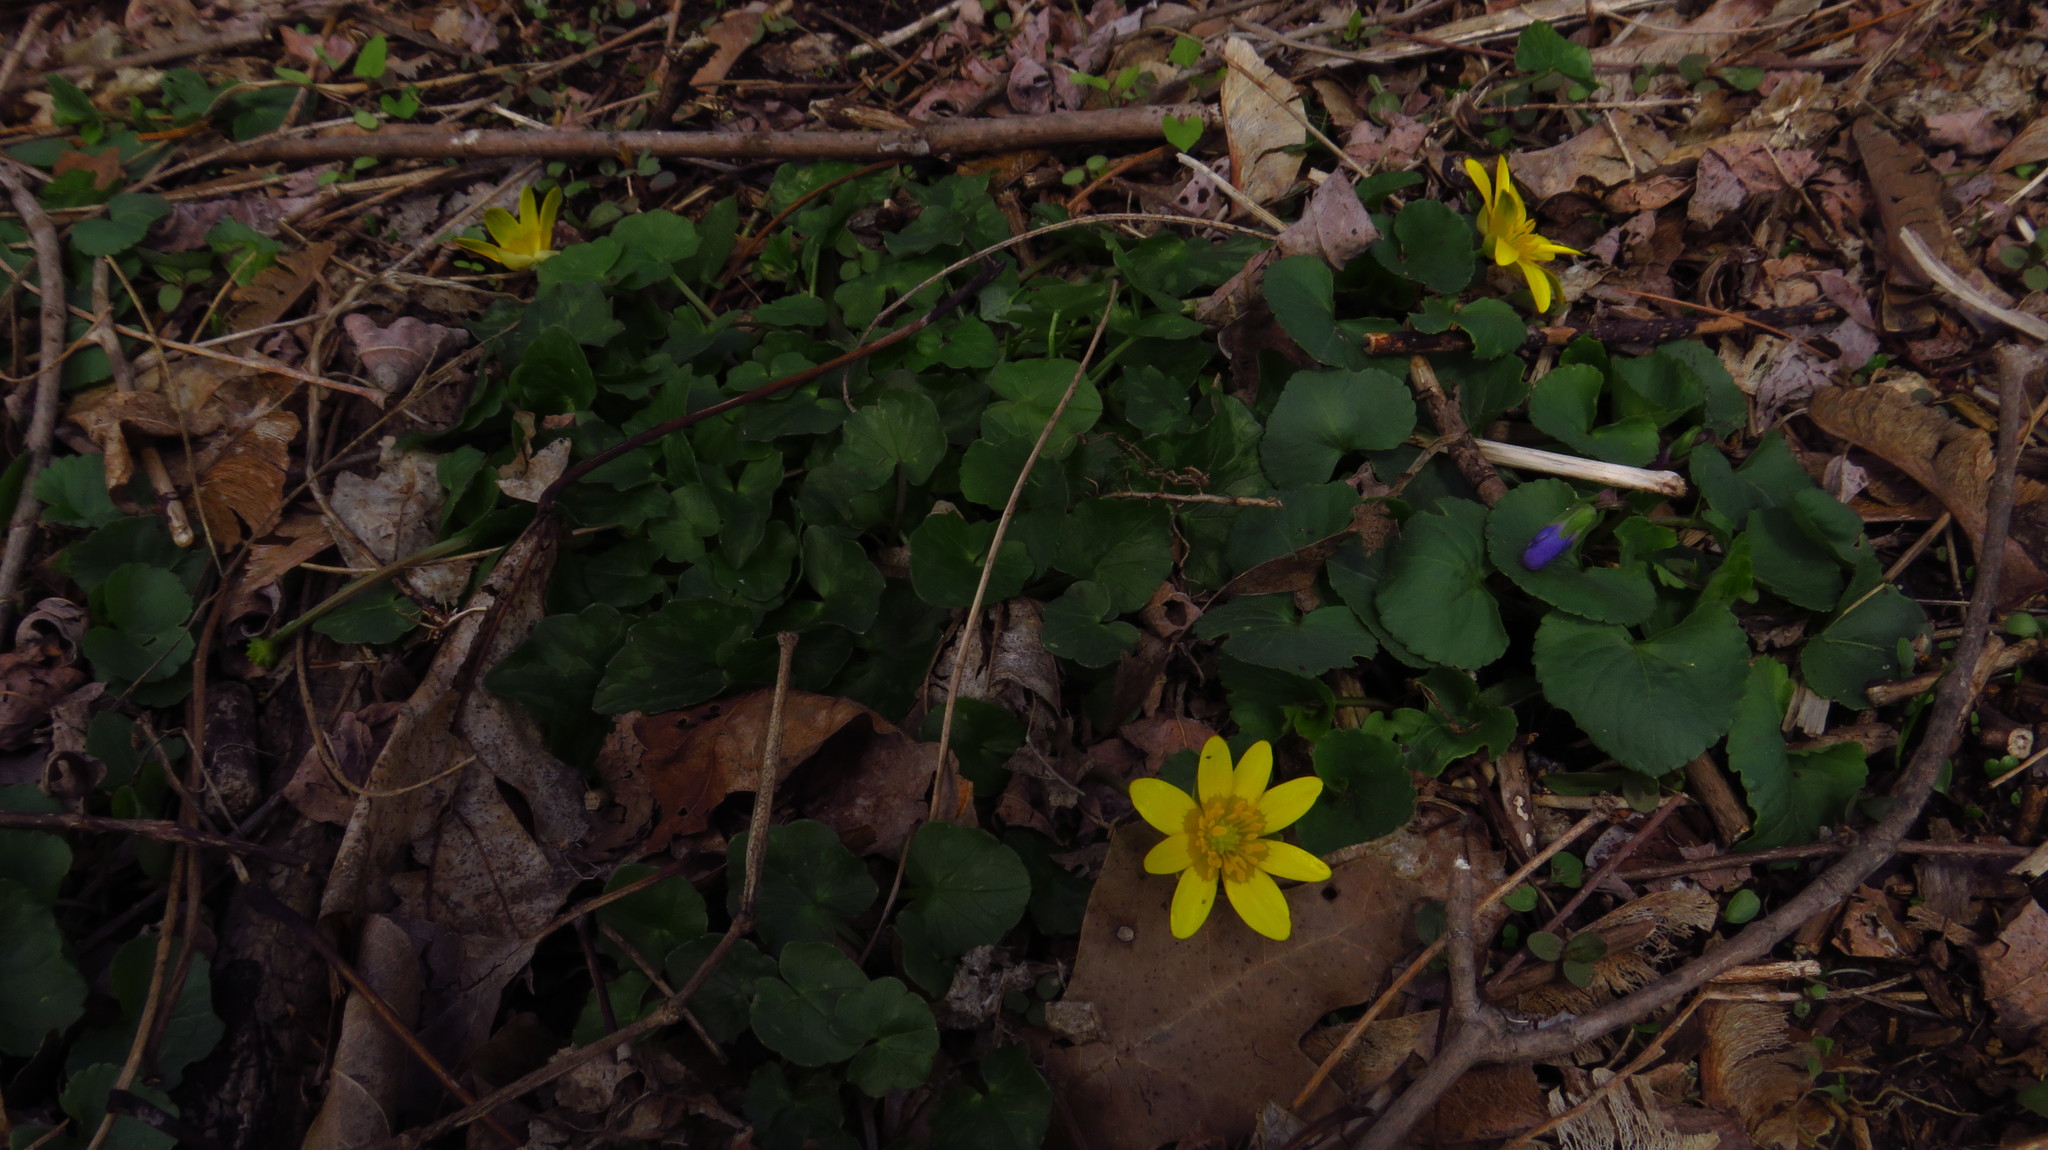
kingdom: Plantae
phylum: Tracheophyta
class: Magnoliopsida
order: Ranunculales
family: Ranunculaceae
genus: Ficaria
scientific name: Ficaria verna
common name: Lesser celandine
